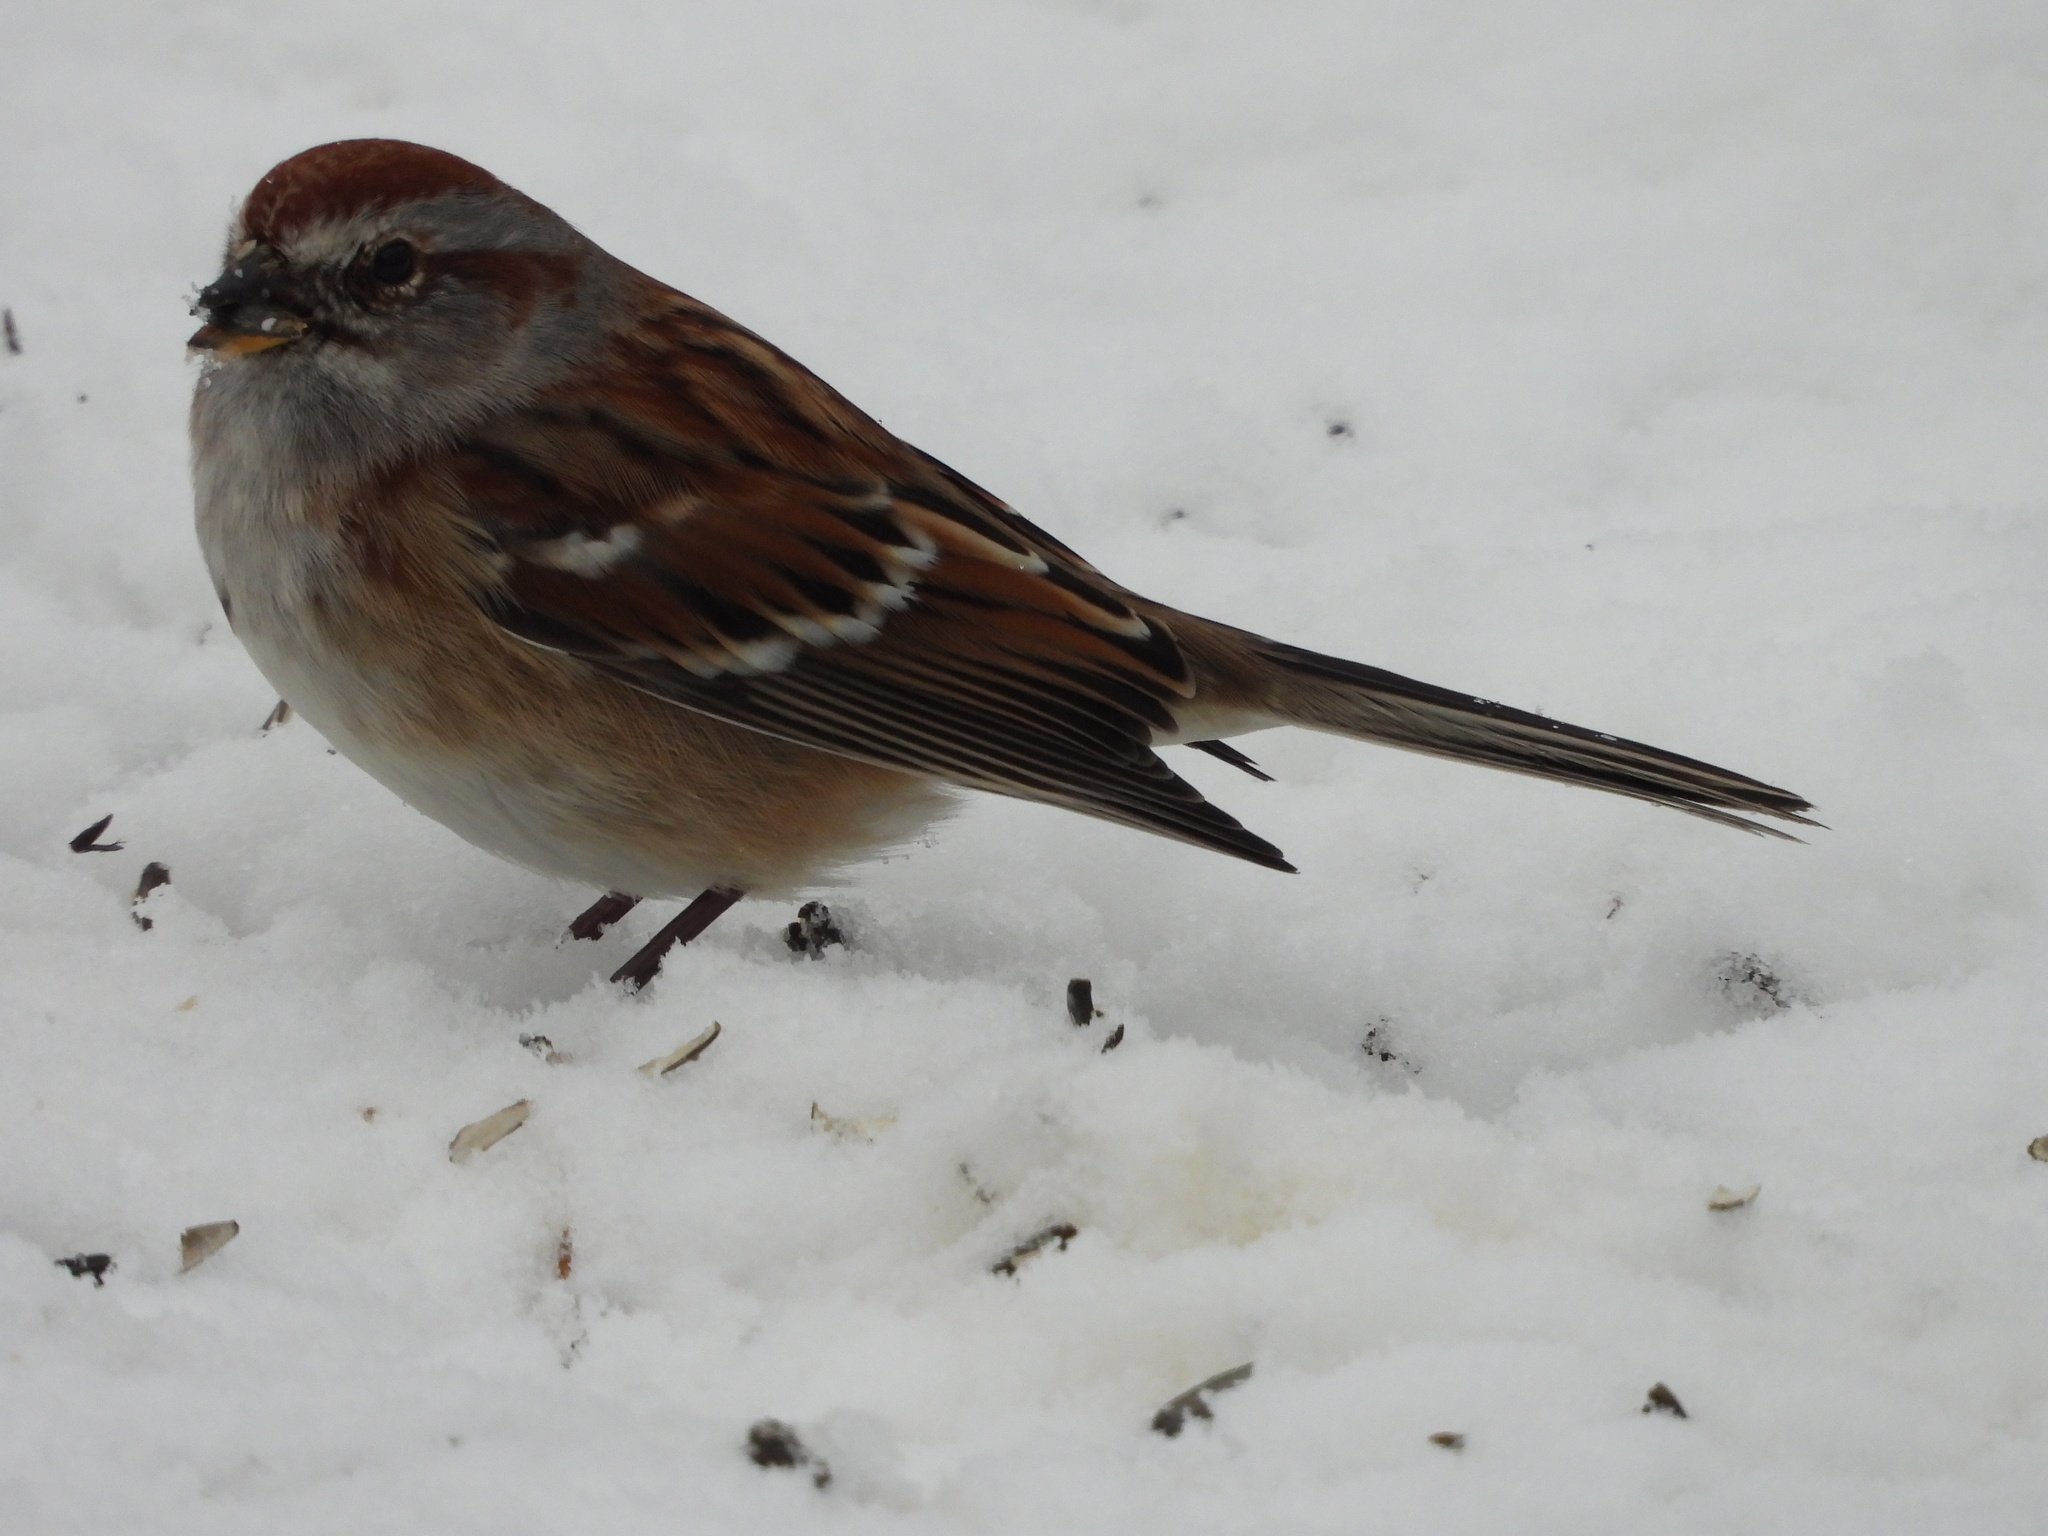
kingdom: Animalia
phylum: Chordata
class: Aves
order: Passeriformes
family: Passerellidae
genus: Spizelloides
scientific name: Spizelloides arborea
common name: American tree sparrow
